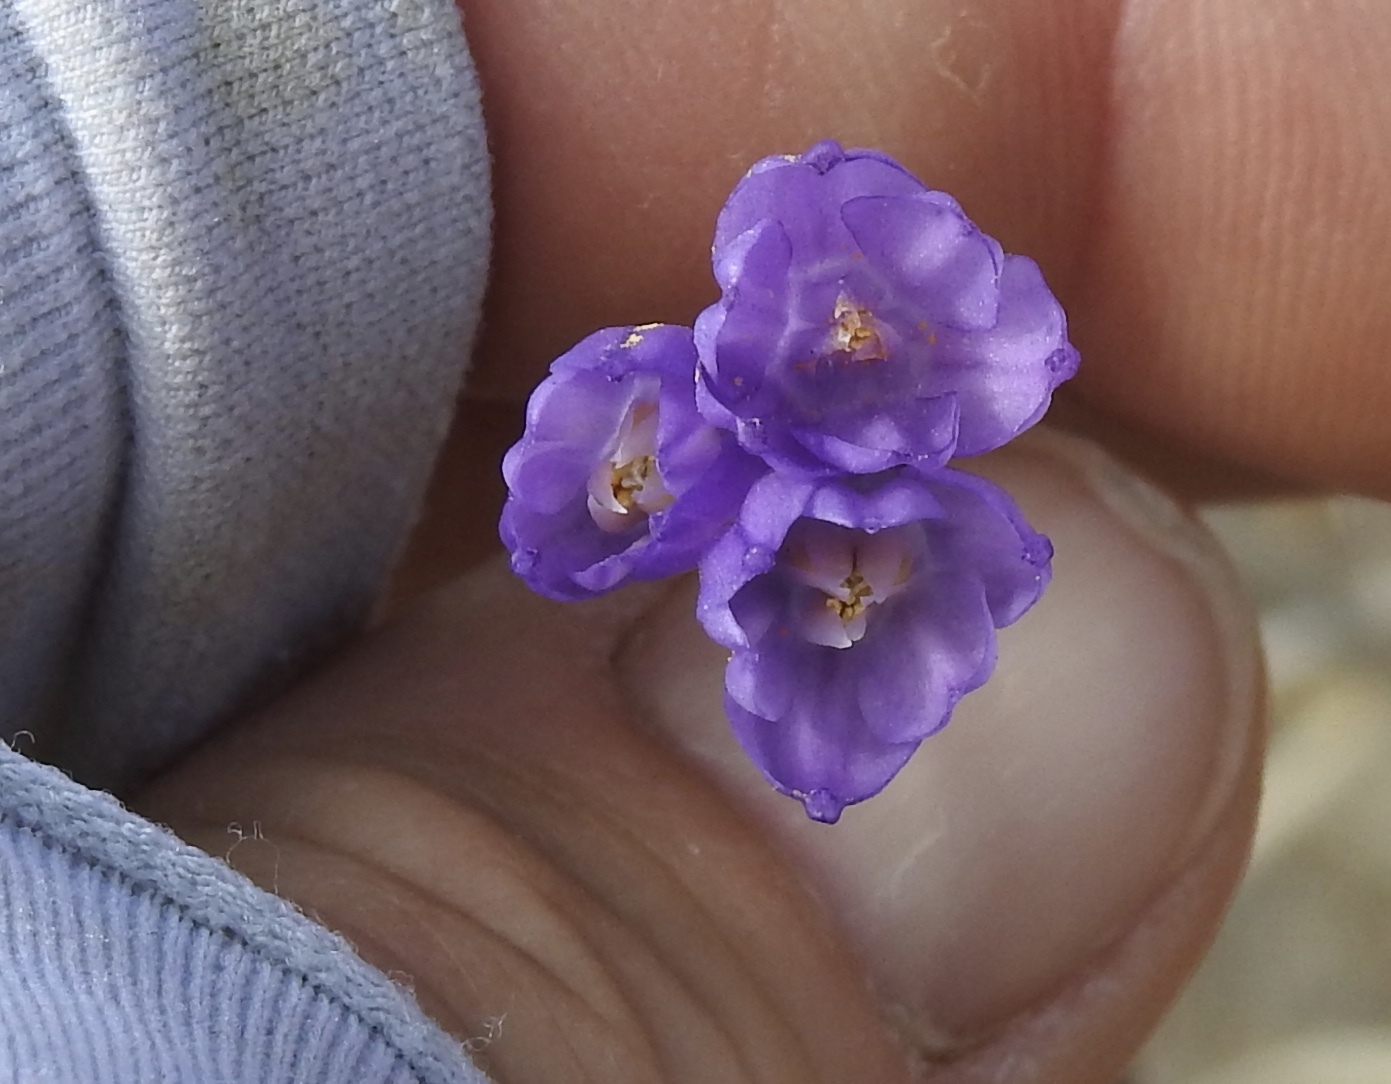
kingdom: Plantae
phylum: Tracheophyta
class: Liliopsida
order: Asparagales
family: Asparagaceae
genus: Dipterostemon
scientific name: Dipterostemon capitatus
